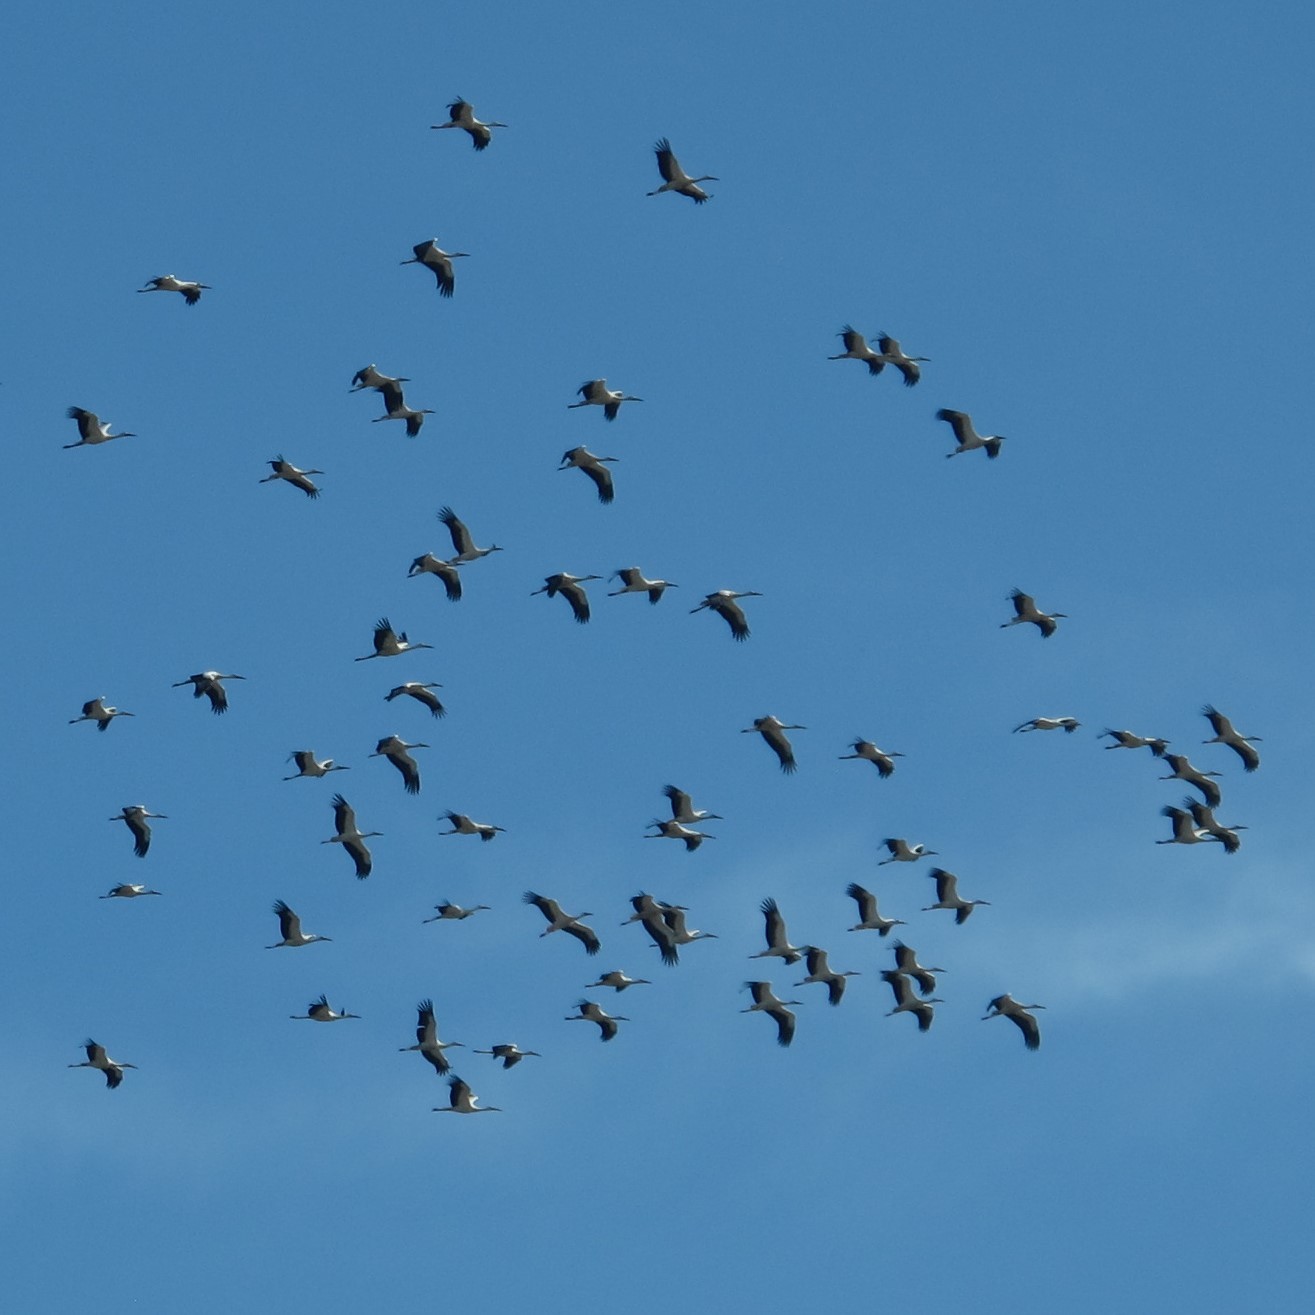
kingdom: Animalia
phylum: Chordata
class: Aves
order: Ciconiiformes
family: Ciconiidae
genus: Ciconia
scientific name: Ciconia ciconia
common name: White stork
